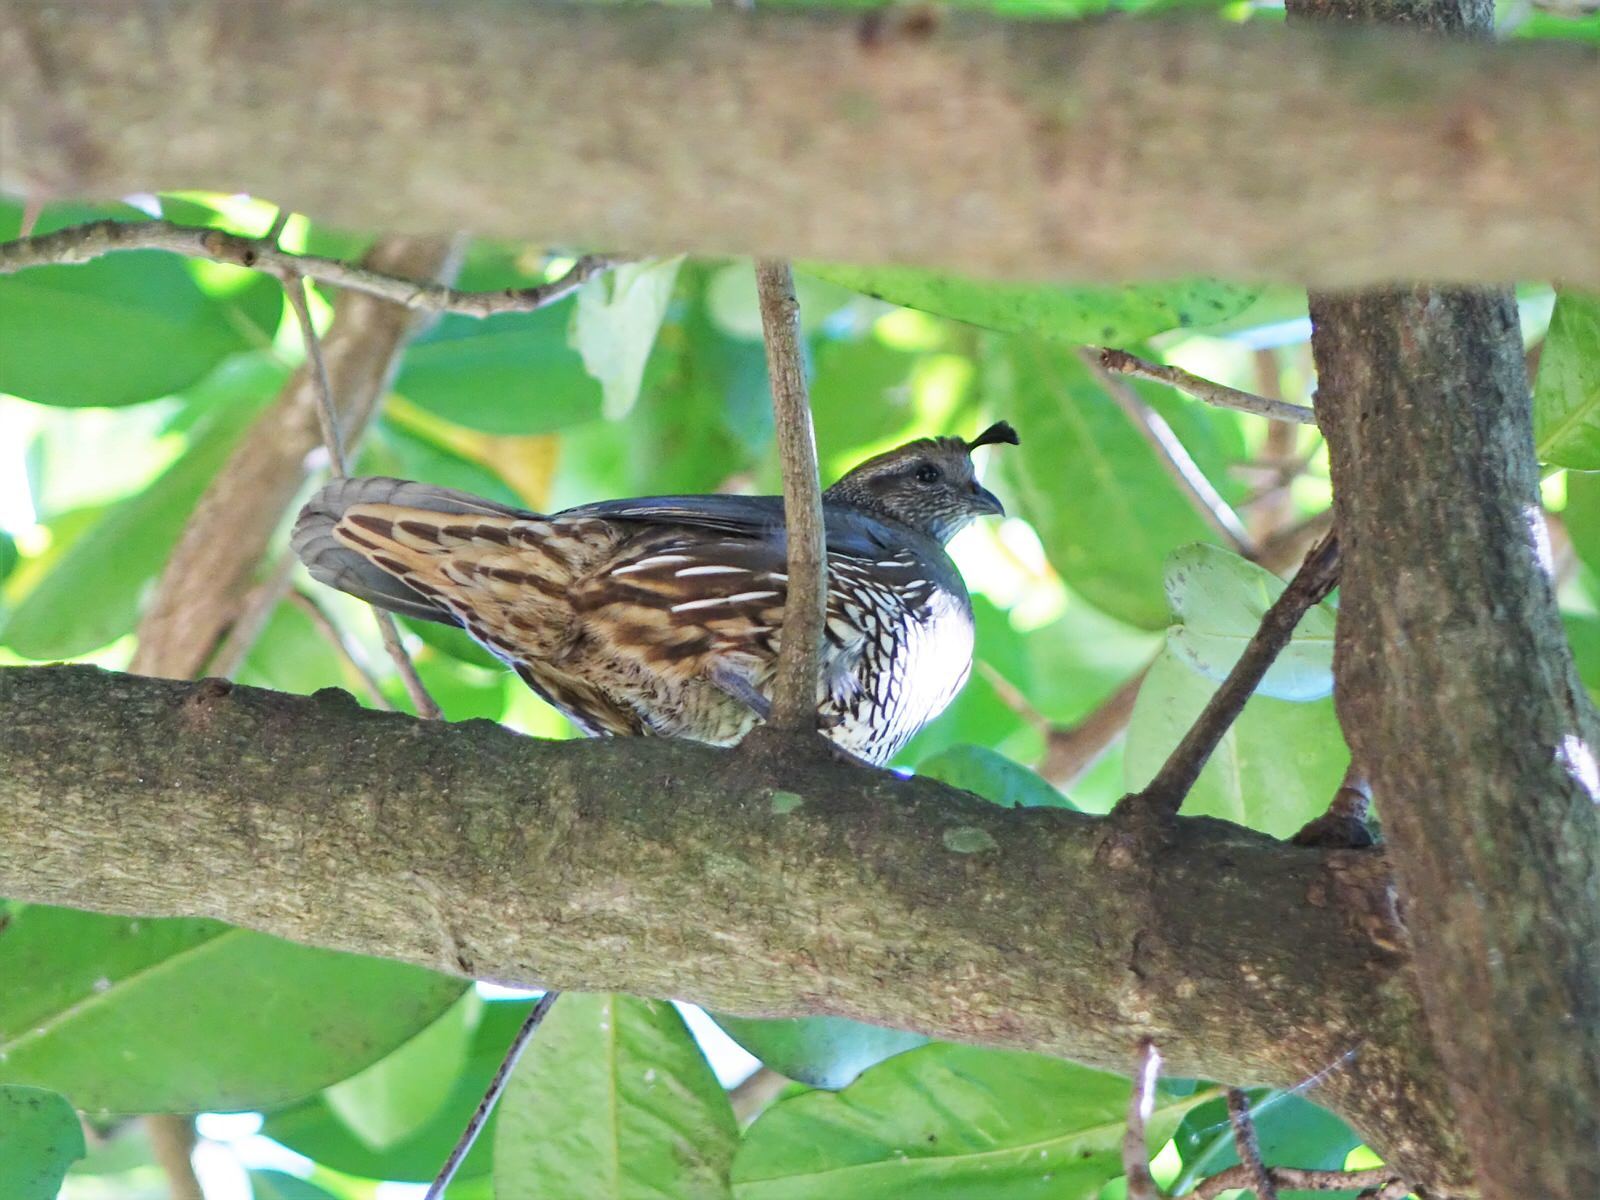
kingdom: Animalia
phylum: Chordata
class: Aves
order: Galliformes
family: Odontophoridae
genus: Callipepla
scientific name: Callipepla californica
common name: California quail
